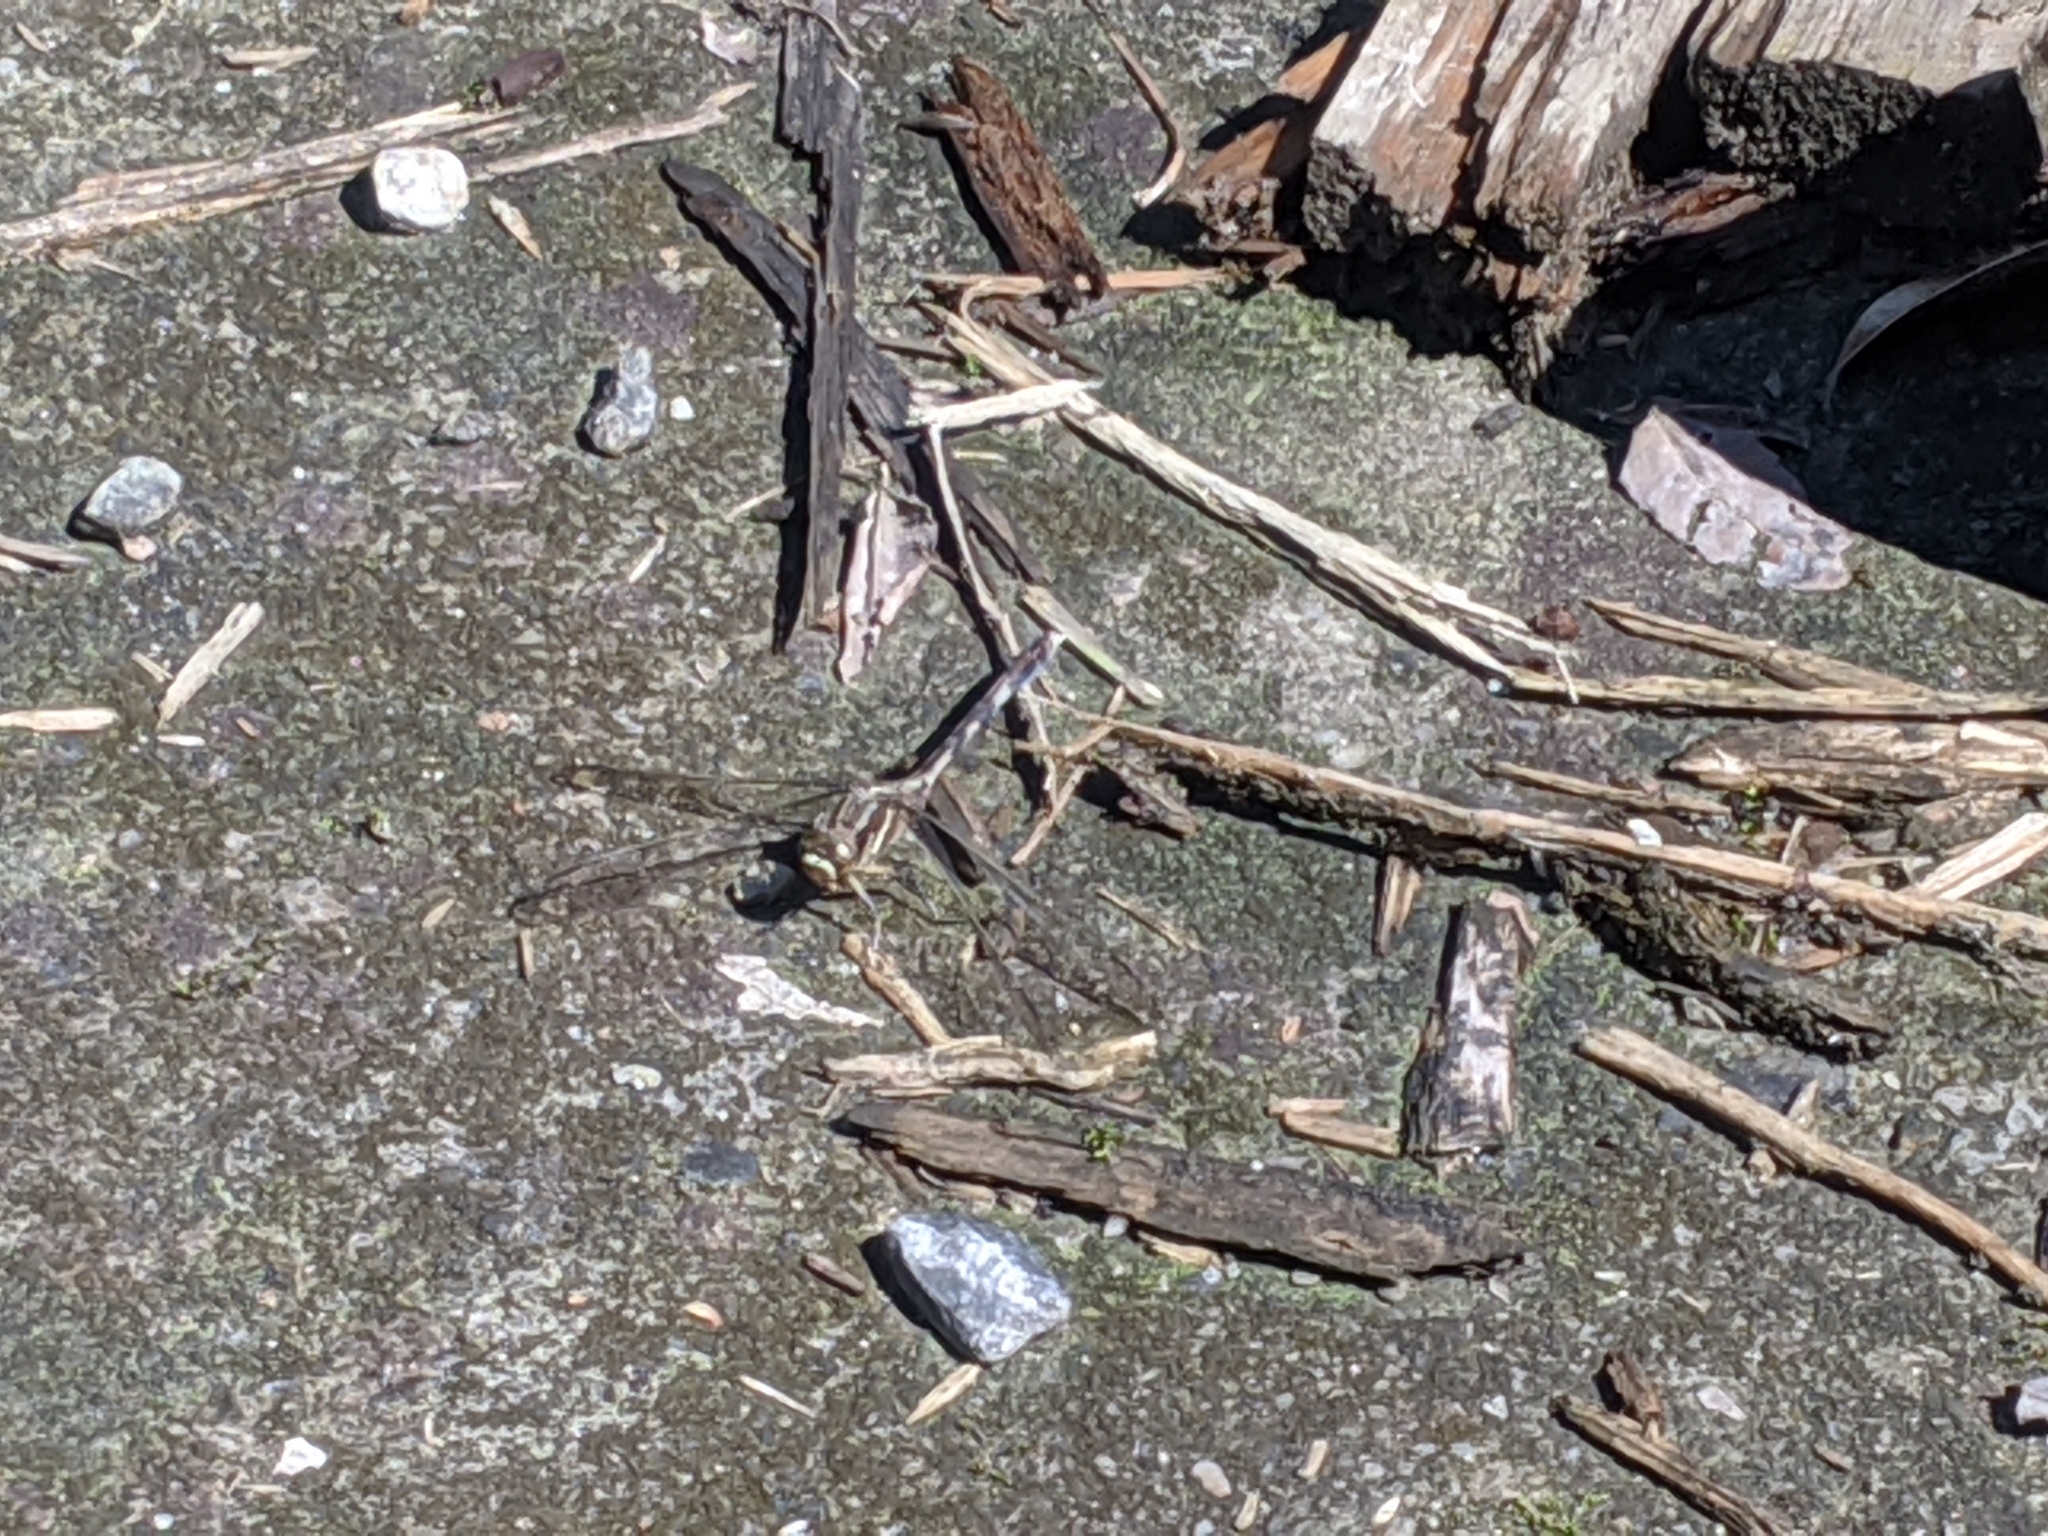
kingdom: Animalia
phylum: Arthropoda
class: Insecta
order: Odonata
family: Libellulidae
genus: Orthetrum
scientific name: Orthetrum sabina
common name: Slender skimmer
